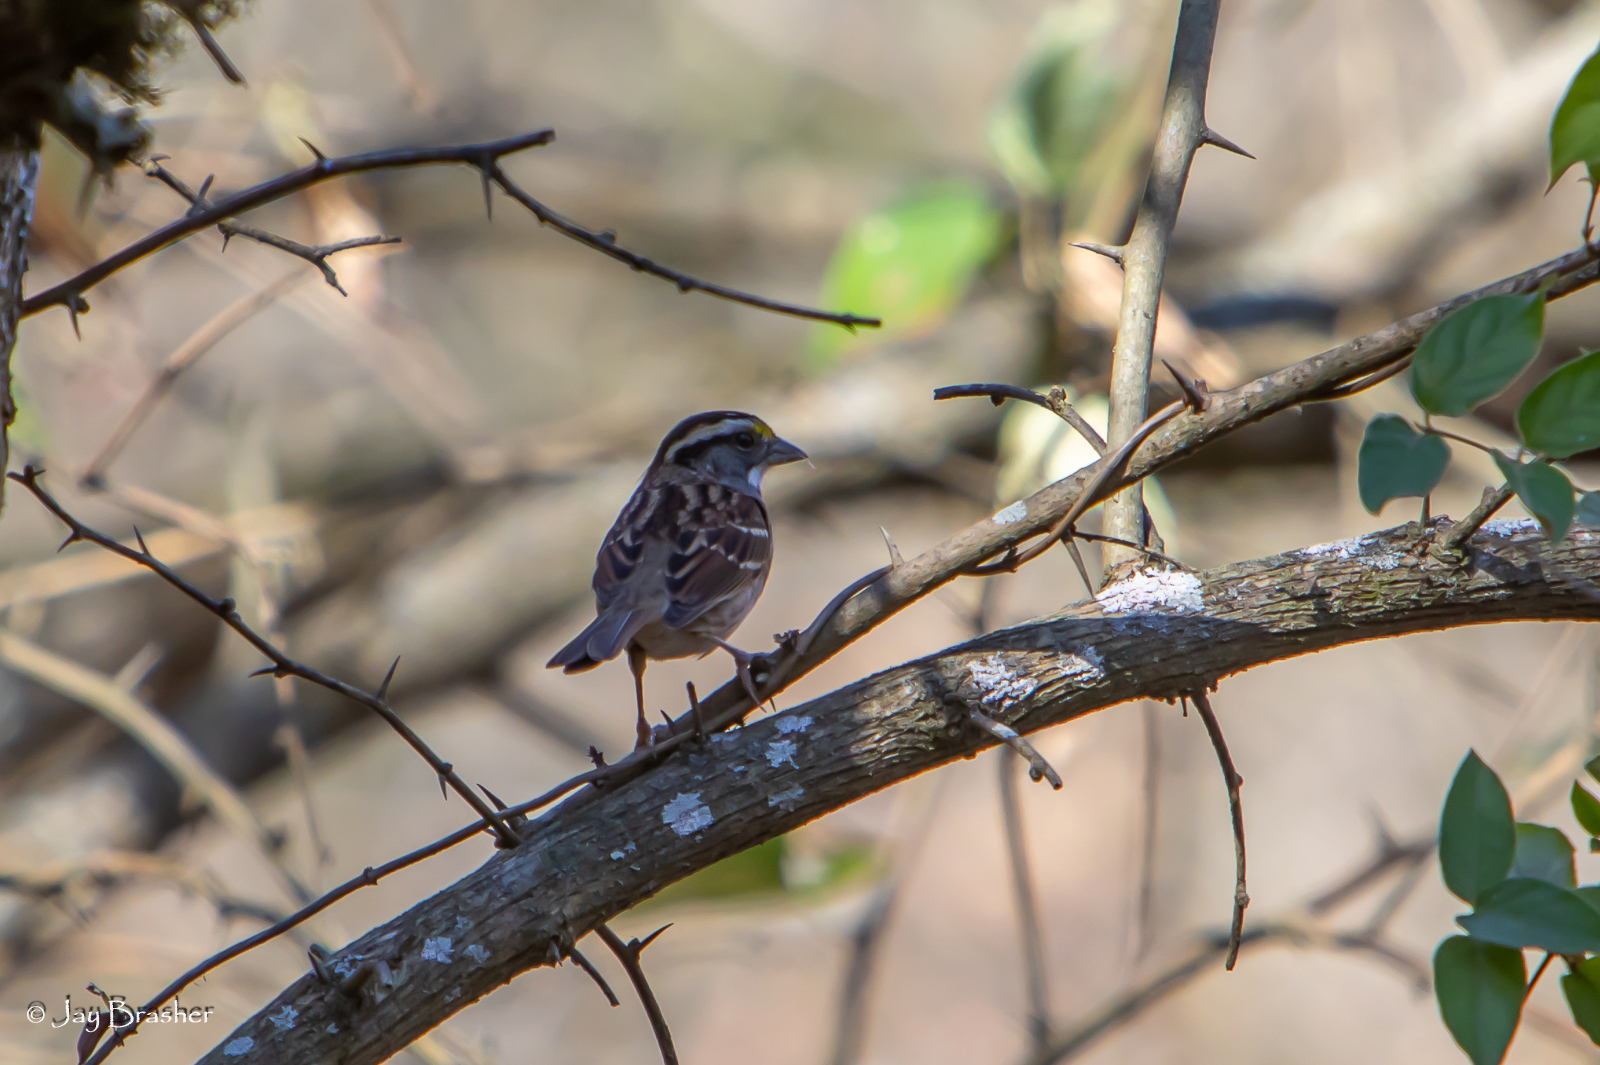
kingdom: Animalia
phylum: Chordata
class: Aves
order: Passeriformes
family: Passerellidae
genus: Zonotrichia
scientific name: Zonotrichia albicollis
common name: White-throated sparrow
